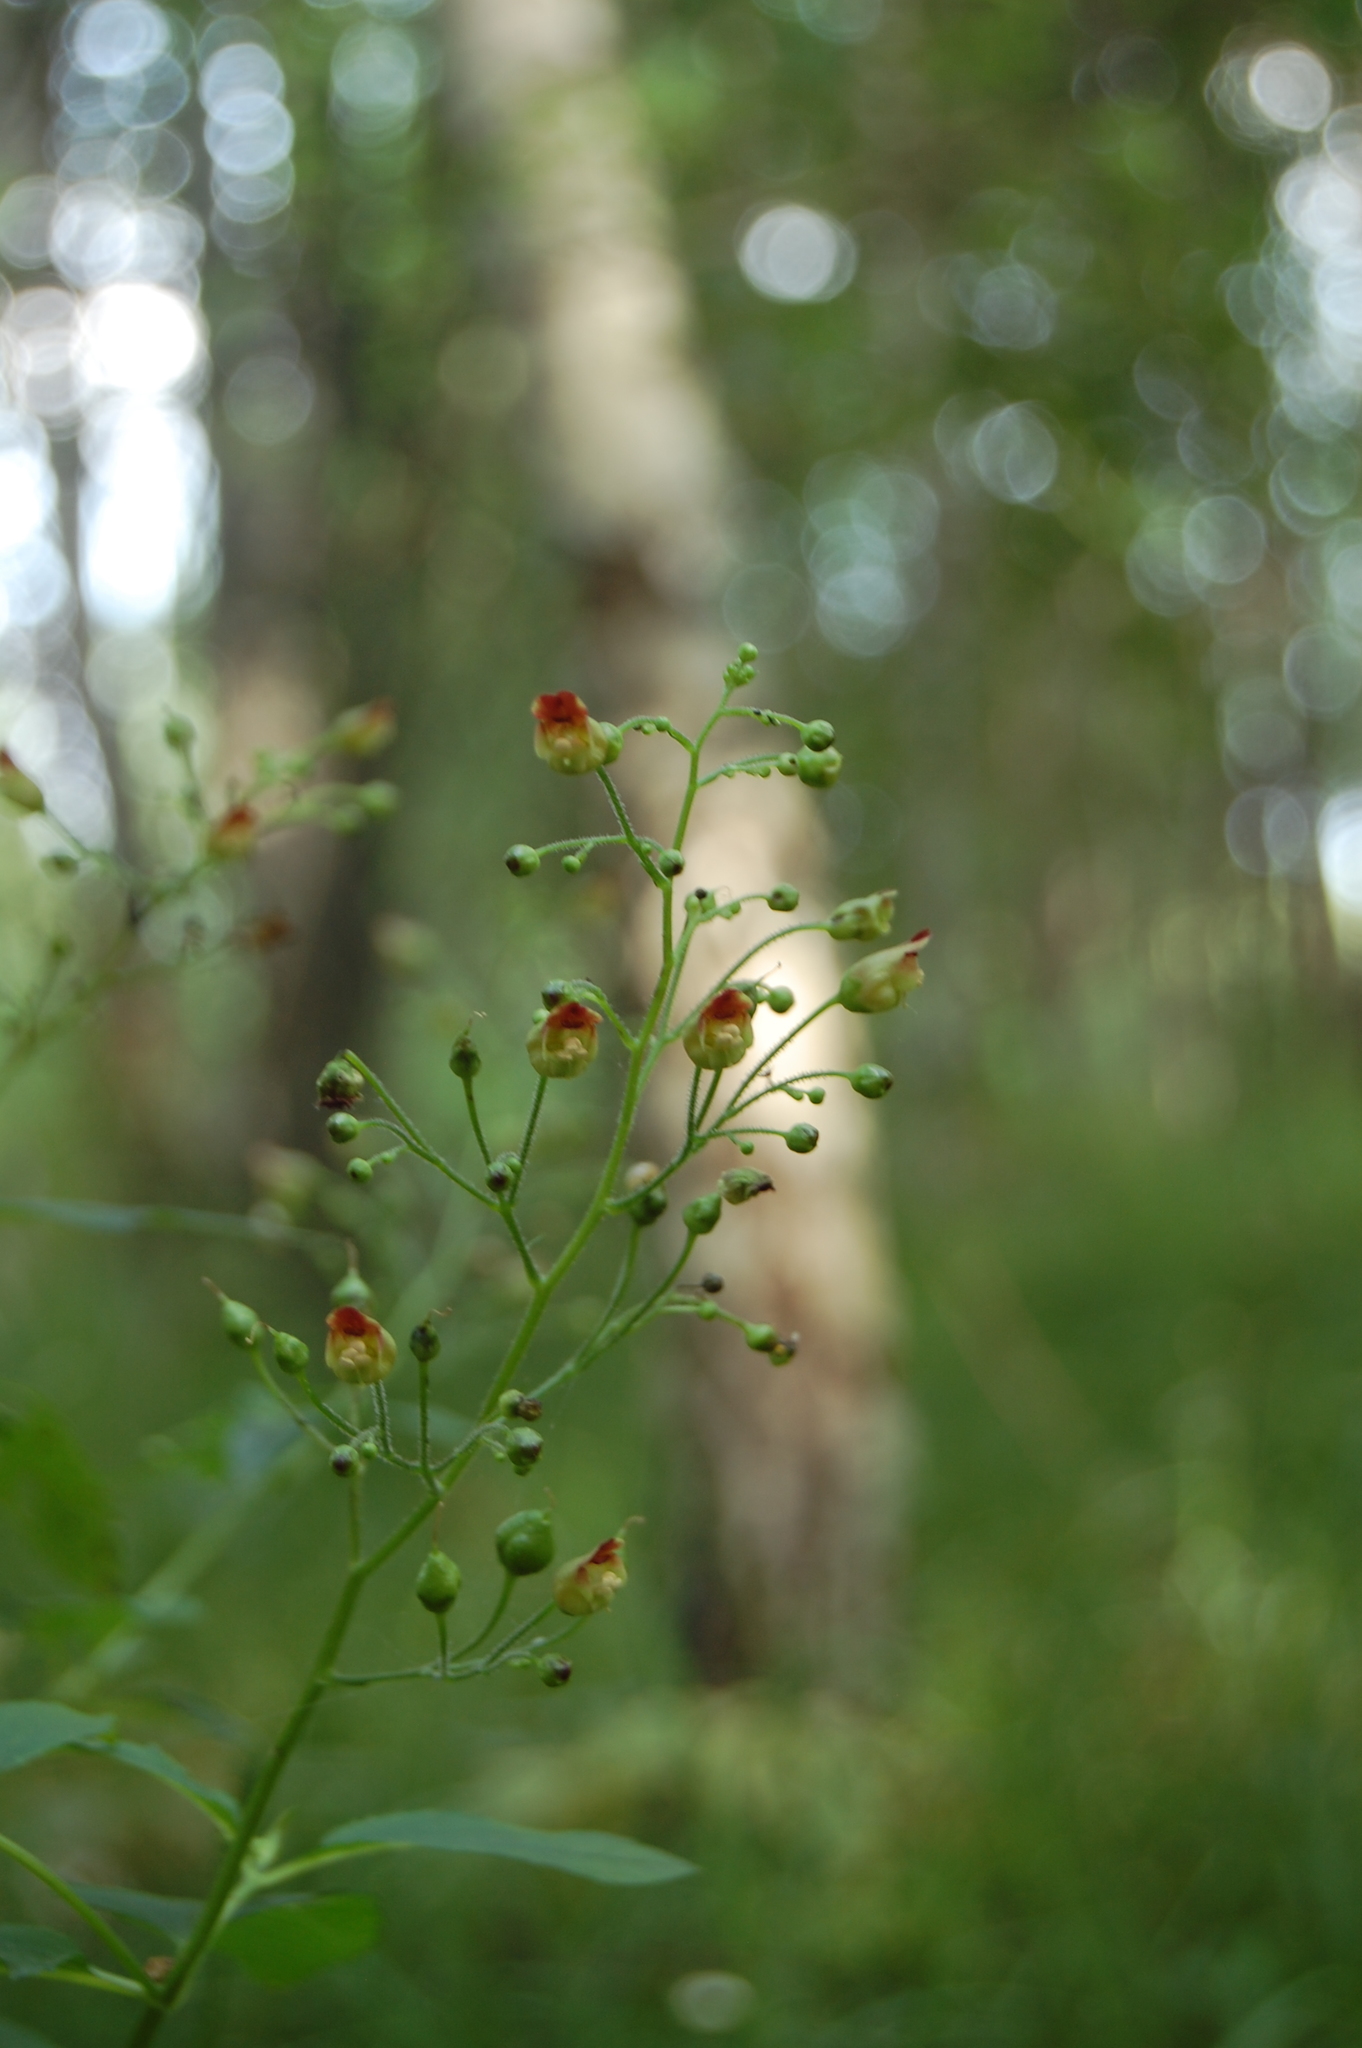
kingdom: Plantae
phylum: Tracheophyta
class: Magnoliopsida
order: Lamiales
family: Scrophulariaceae
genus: Scrophularia
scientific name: Scrophularia nodosa
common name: Common figwort
